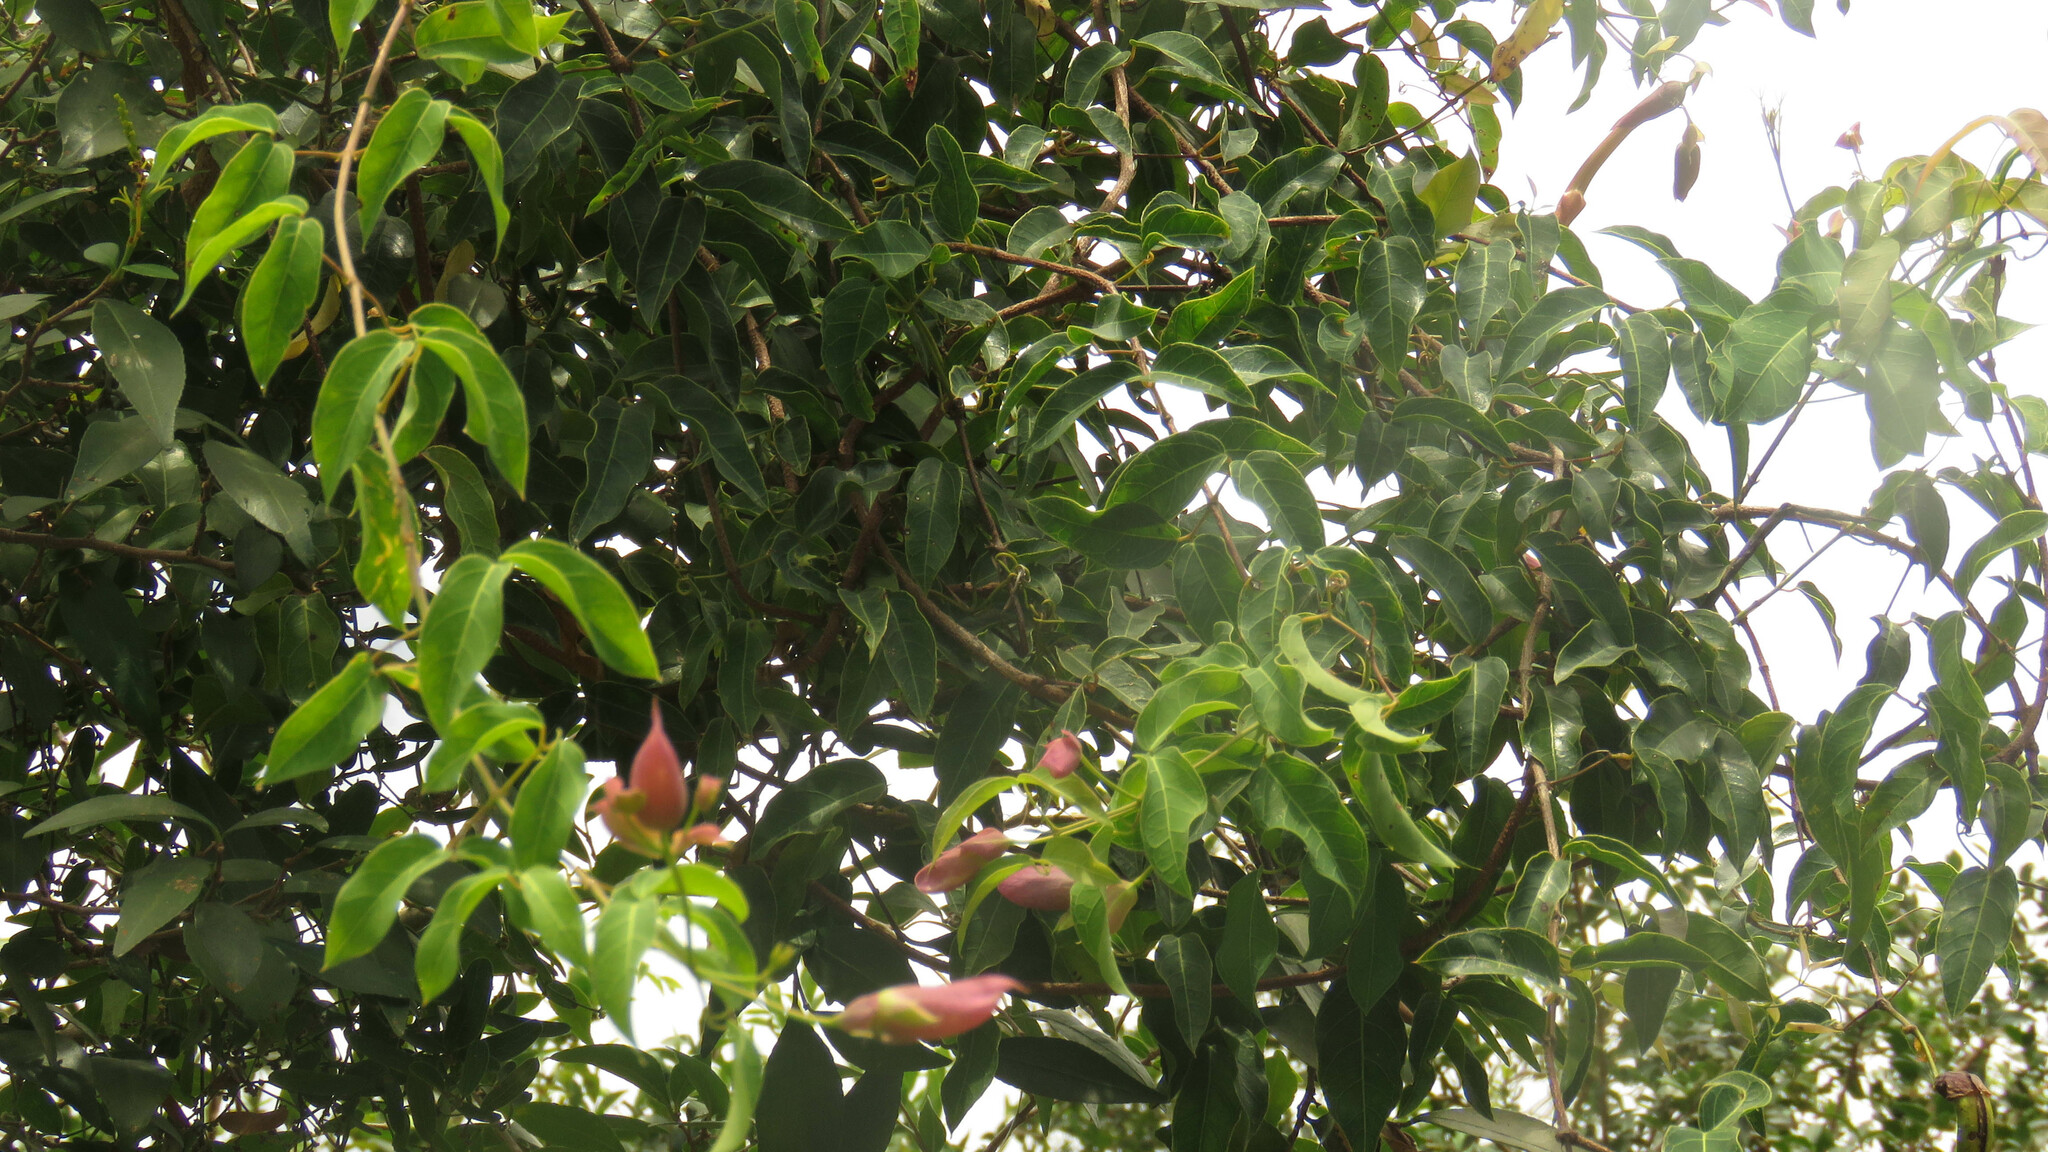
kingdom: Plantae
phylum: Tracheophyta
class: Magnoliopsida
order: Lamiales
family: Bignoniaceae
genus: Dolichandra
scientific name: Dolichandra cynanchoides
